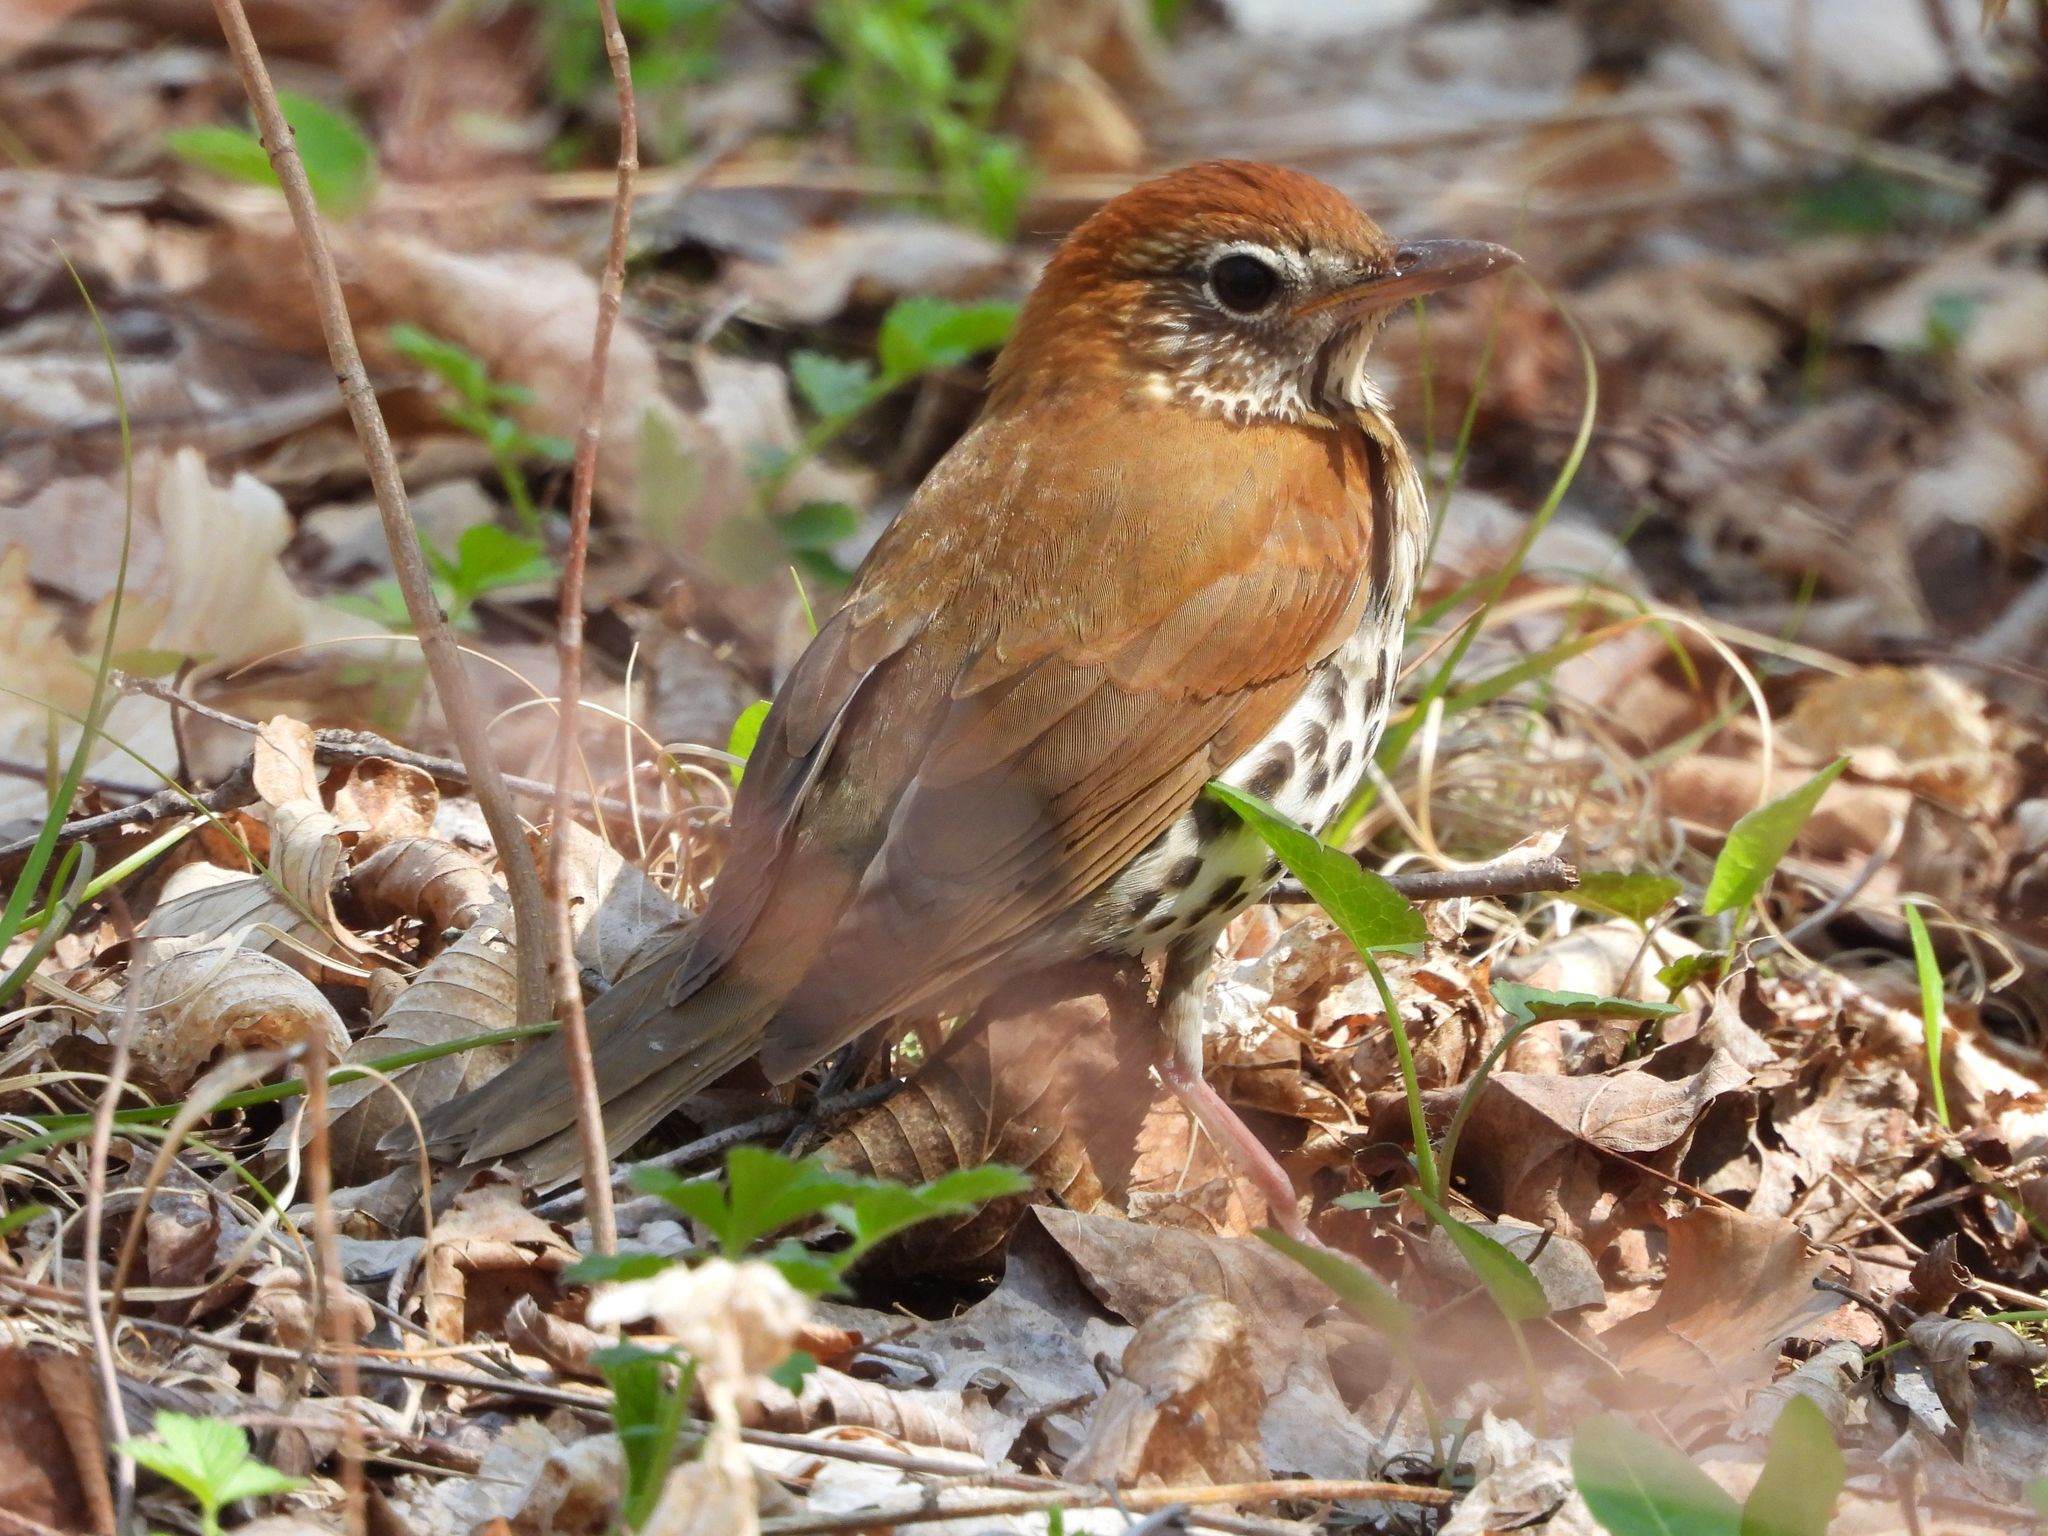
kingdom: Animalia
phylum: Chordata
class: Aves
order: Passeriformes
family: Turdidae
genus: Hylocichla
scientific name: Hylocichla mustelina
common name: Wood thrush
